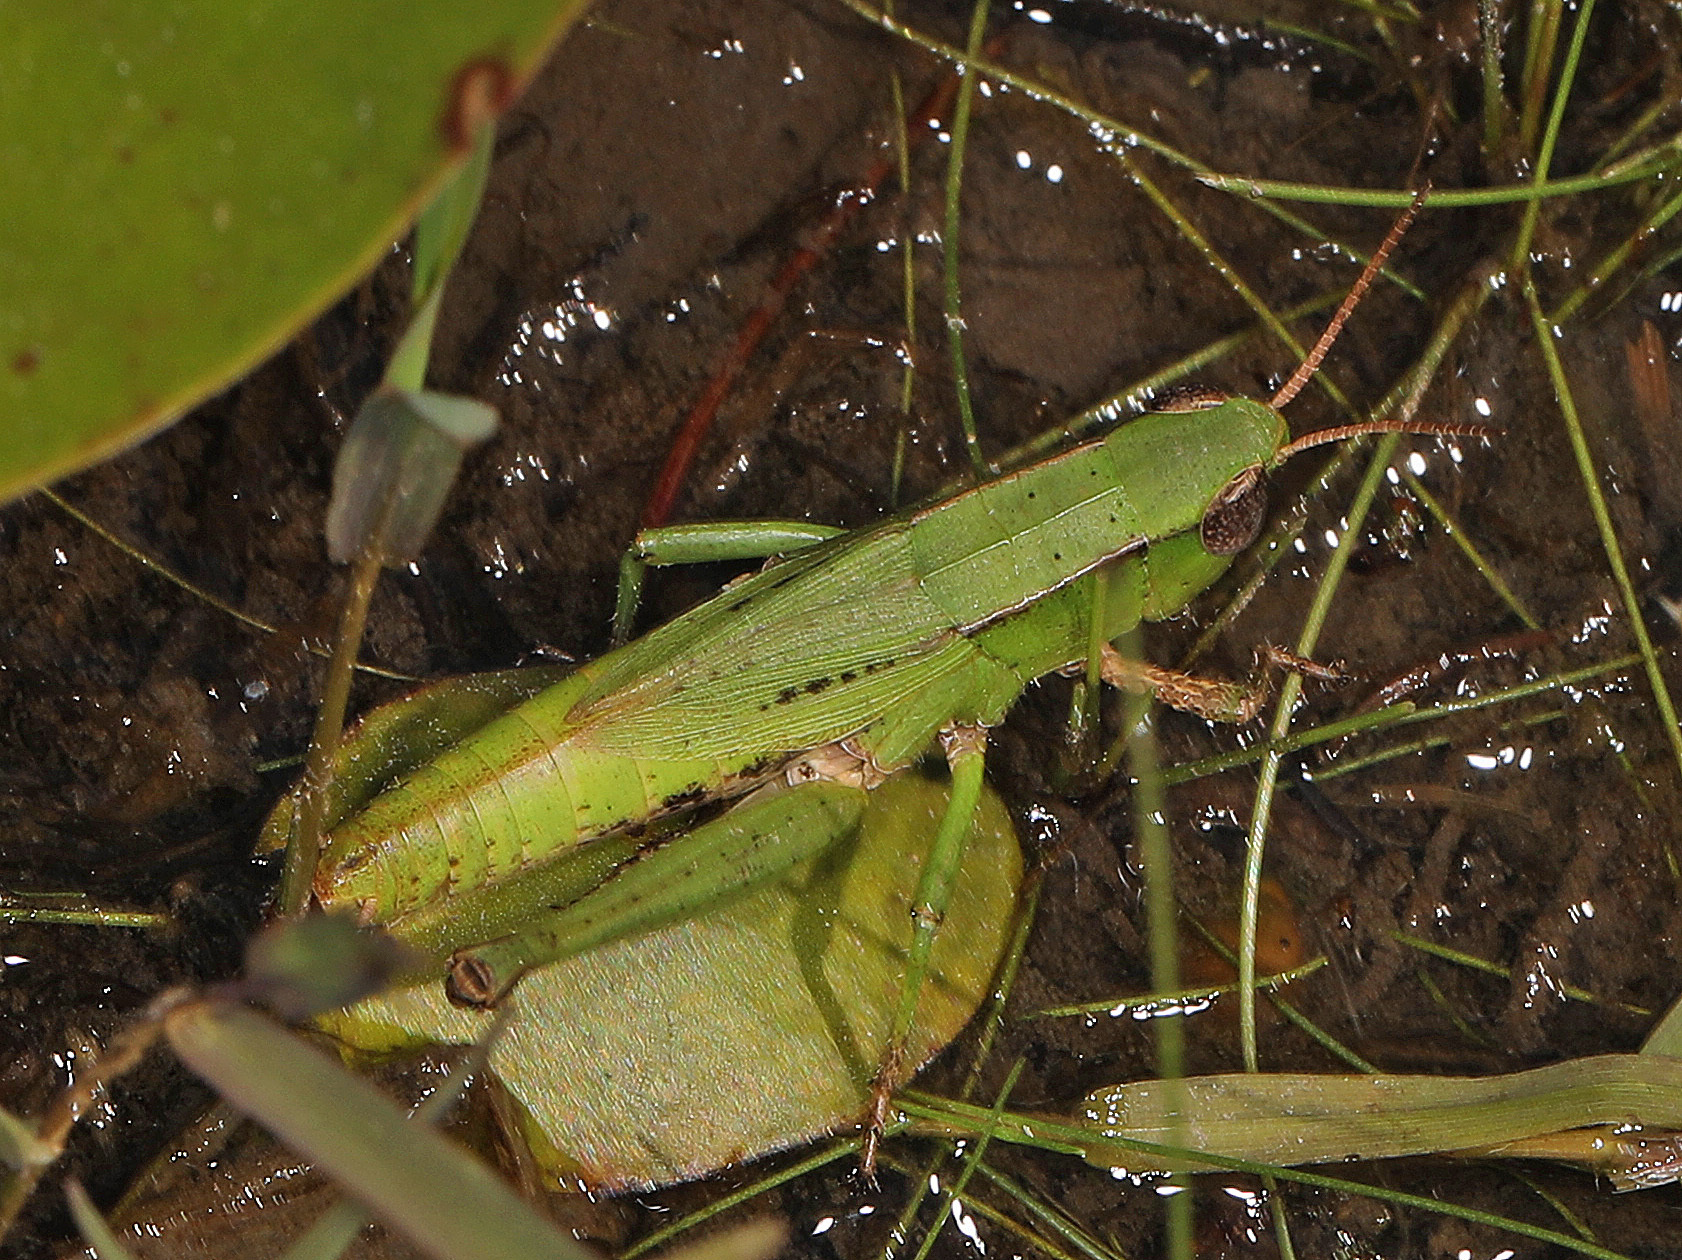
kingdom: Animalia
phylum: Arthropoda
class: Insecta
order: Orthoptera
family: Acrididae
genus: Dichromorpha
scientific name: Dichromorpha viridis
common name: Short-winged green grasshopper
